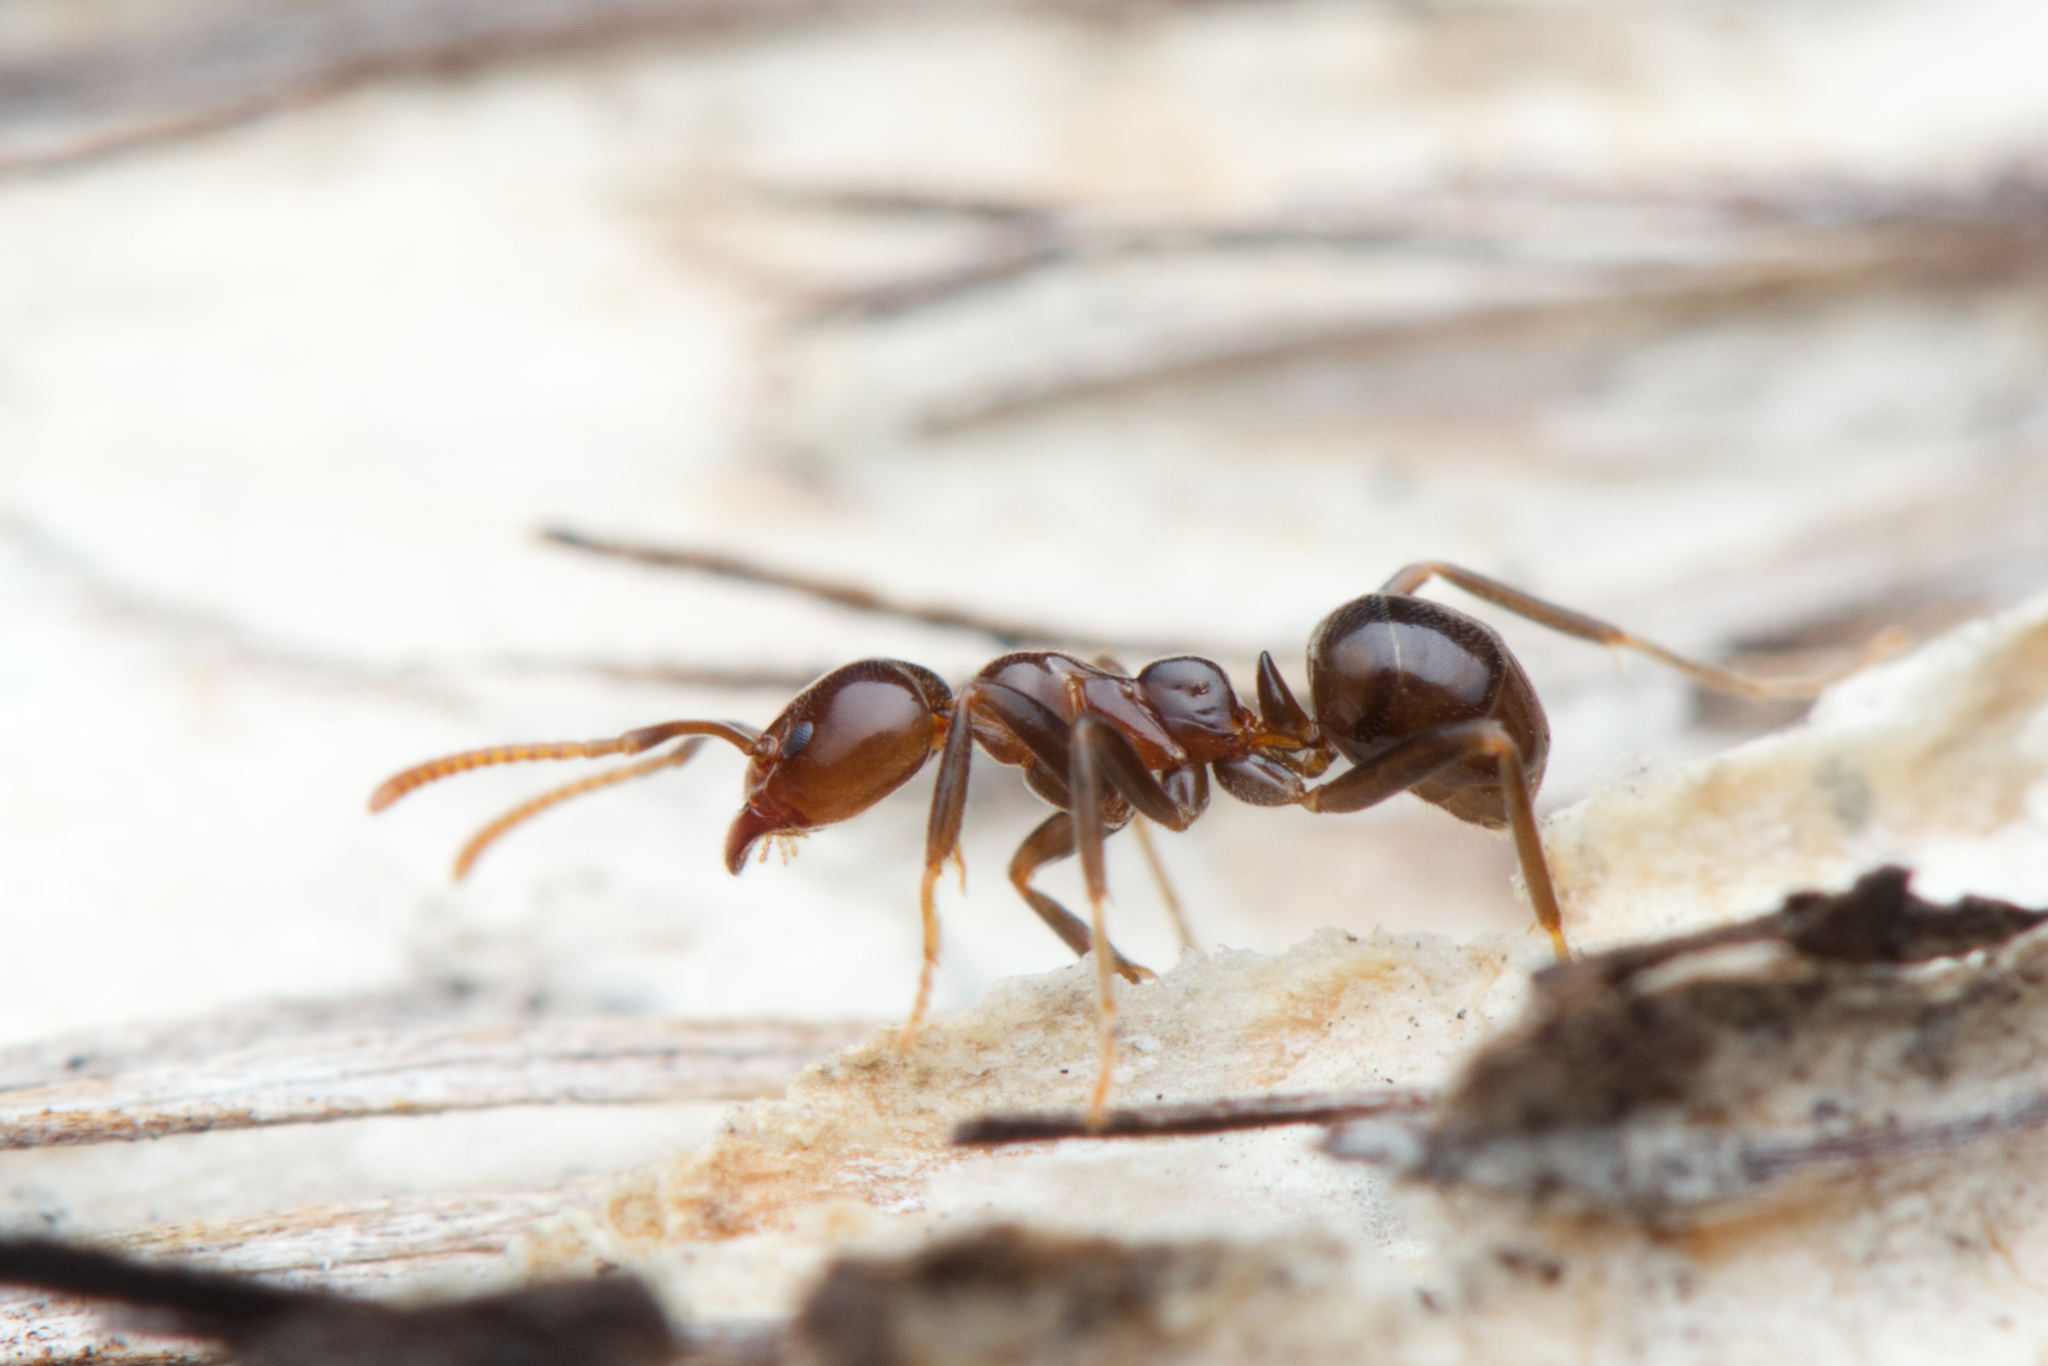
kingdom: Animalia
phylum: Arthropoda
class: Insecta
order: Hymenoptera
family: Formicidae
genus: Papyrius
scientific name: Papyrius nitidus
